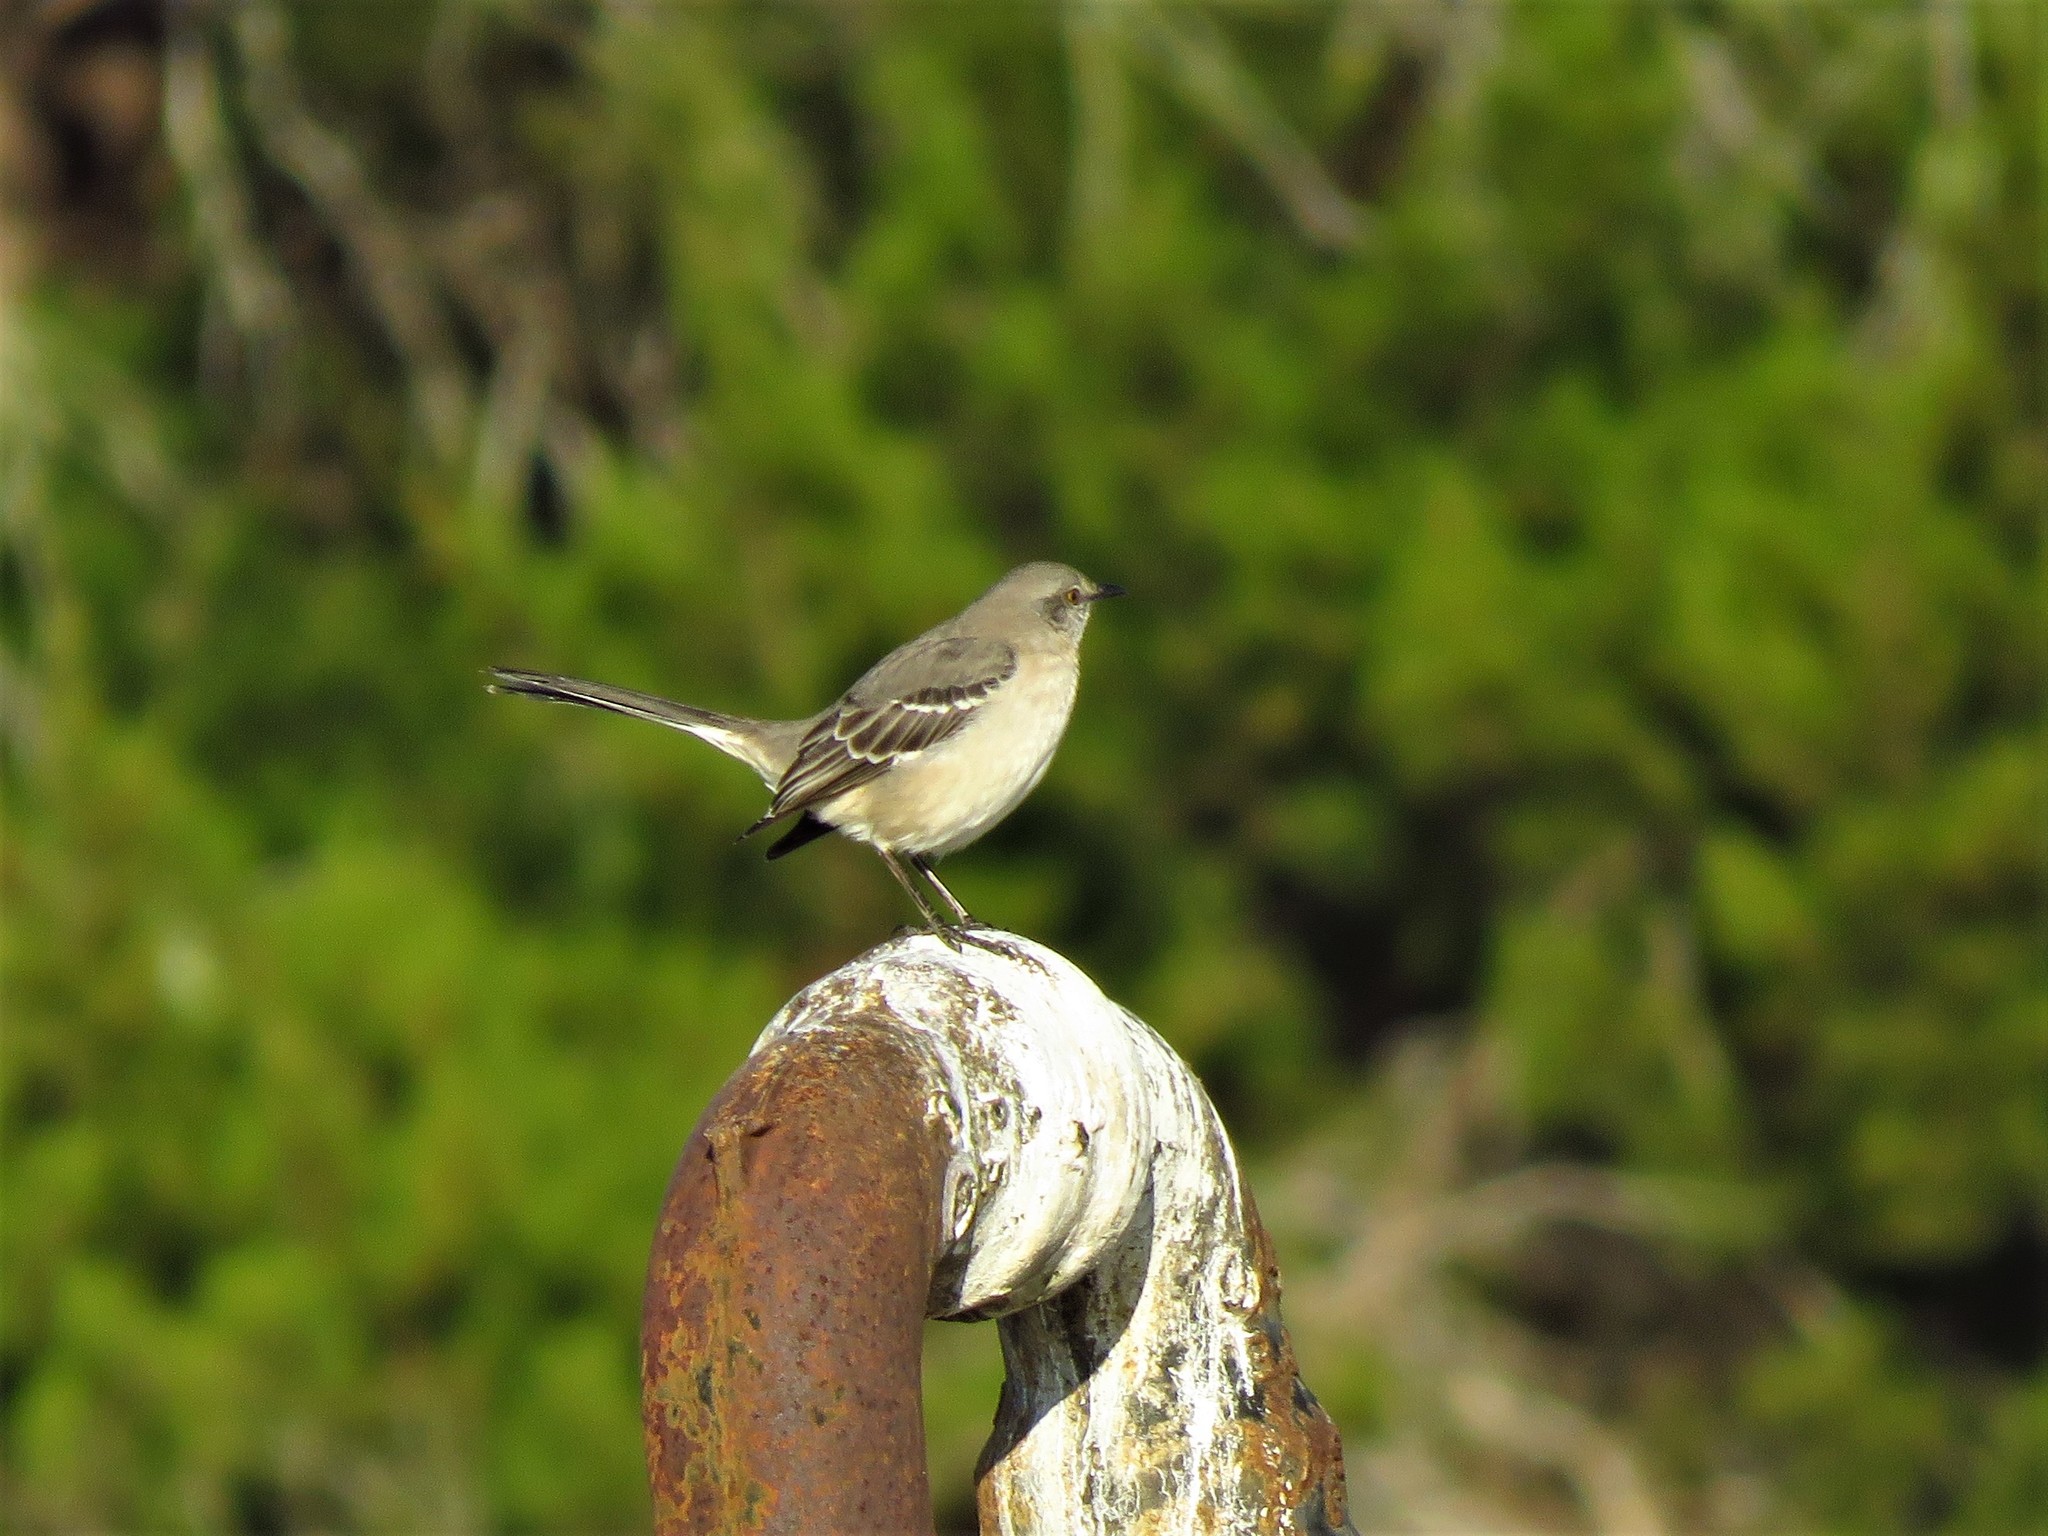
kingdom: Animalia
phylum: Chordata
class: Aves
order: Passeriformes
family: Mimidae
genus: Mimus
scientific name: Mimus polyglottos
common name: Northern mockingbird
